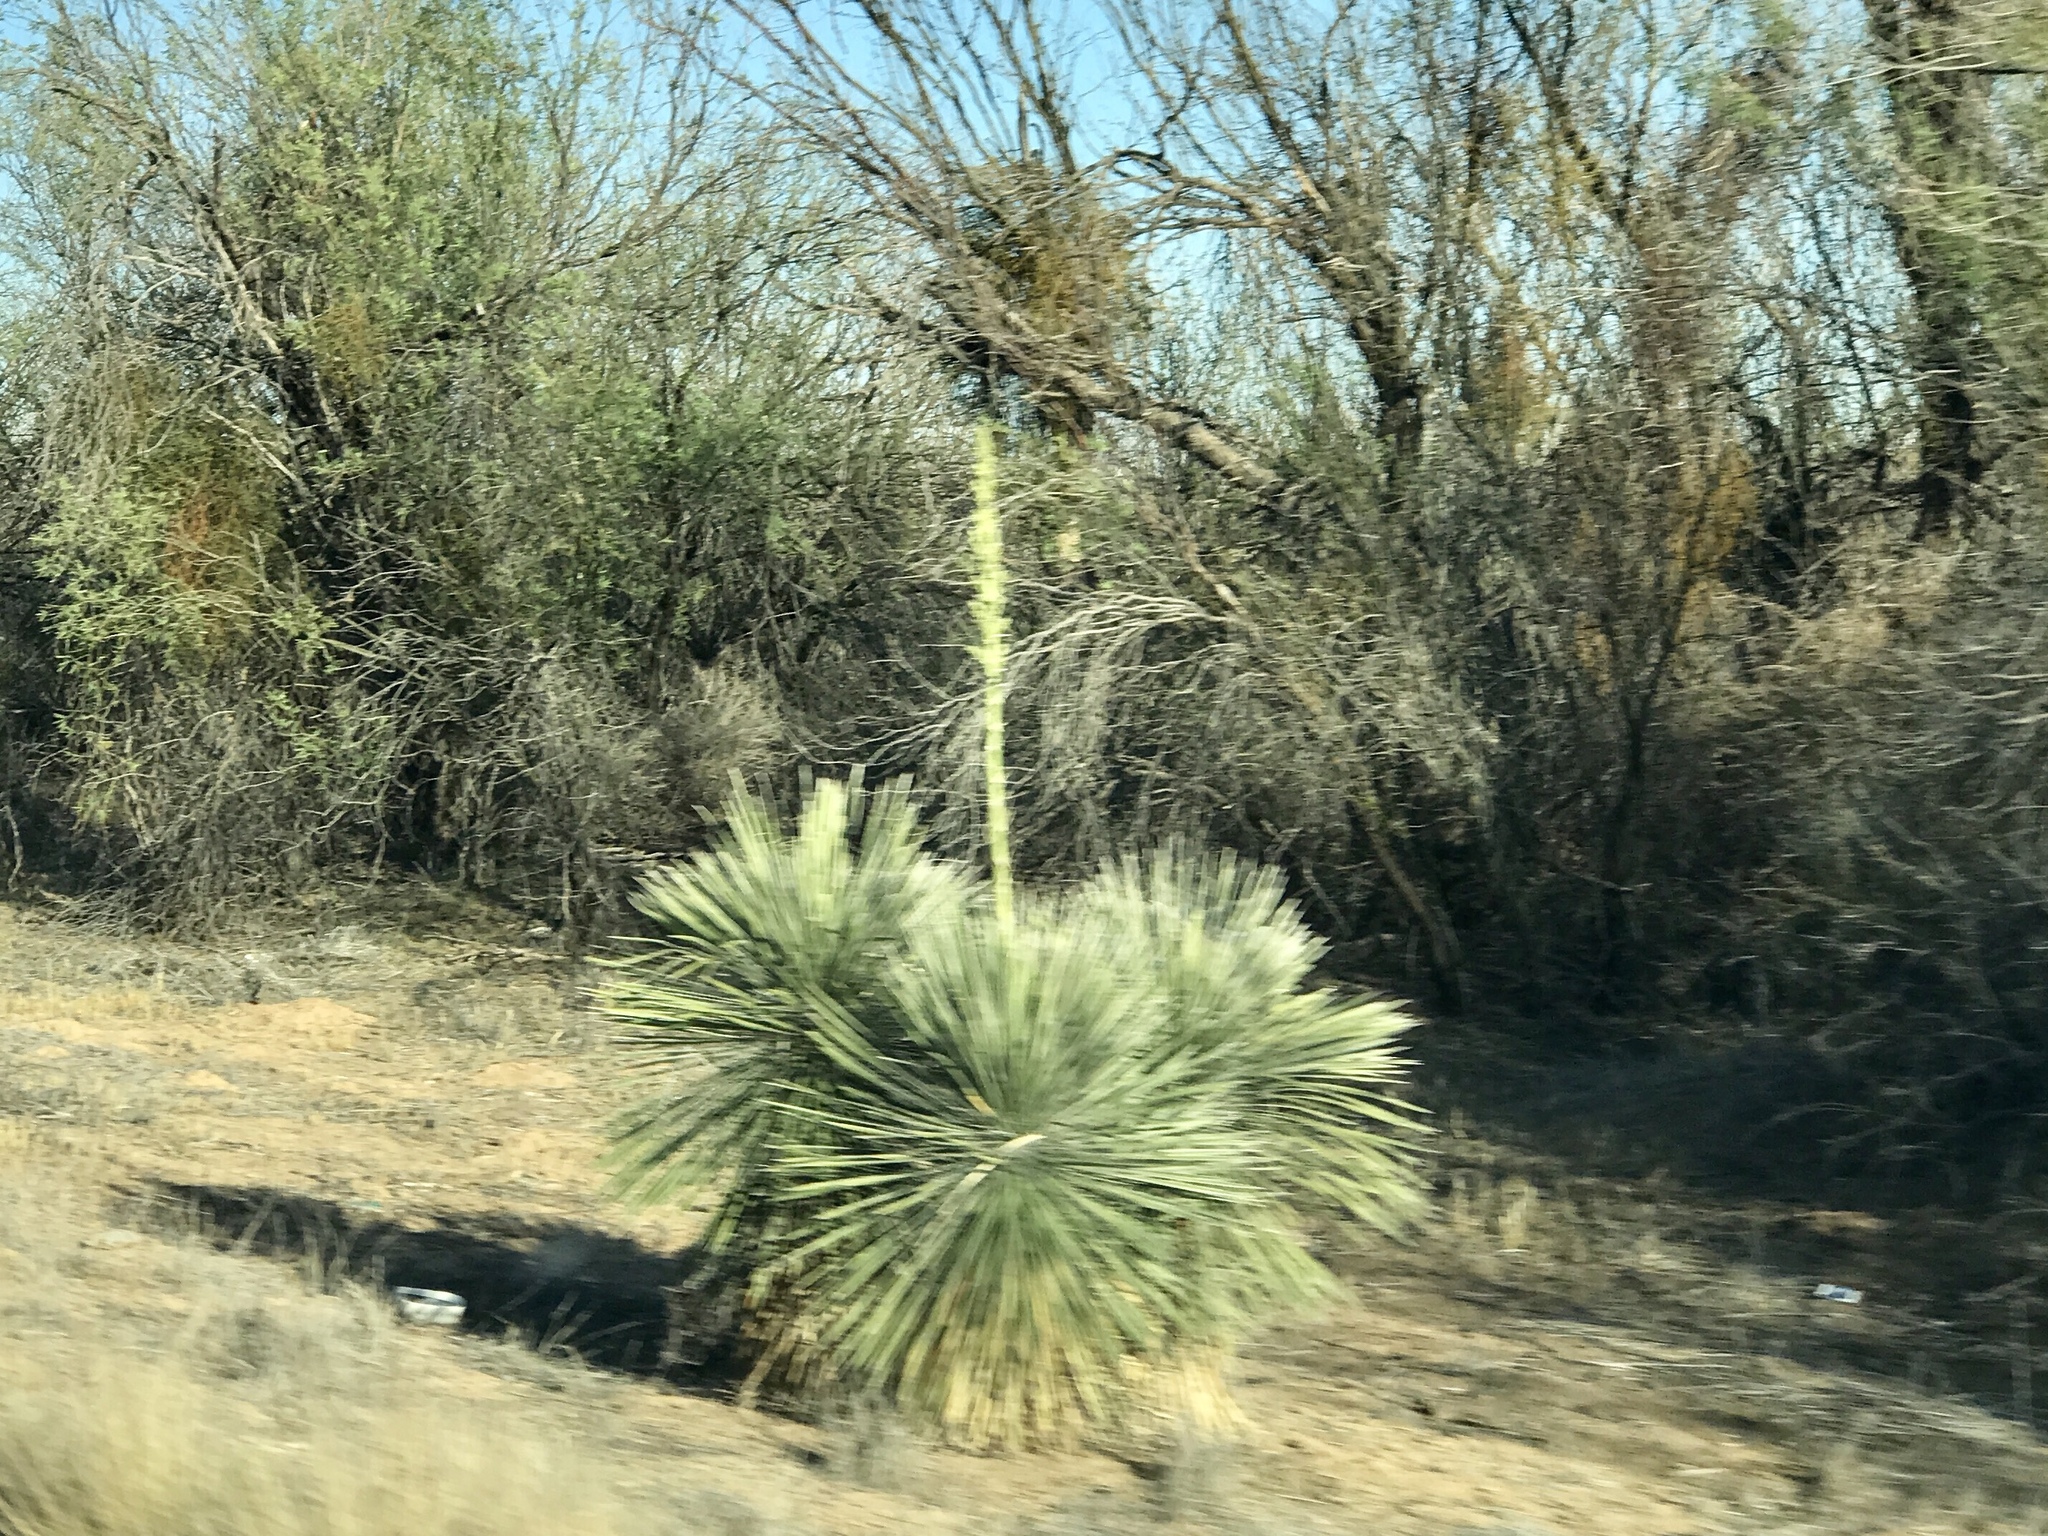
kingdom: Plantae
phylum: Tracheophyta
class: Liliopsida
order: Asparagales
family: Asparagaceae
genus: Yucca
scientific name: Yucca elata
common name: Palmella
